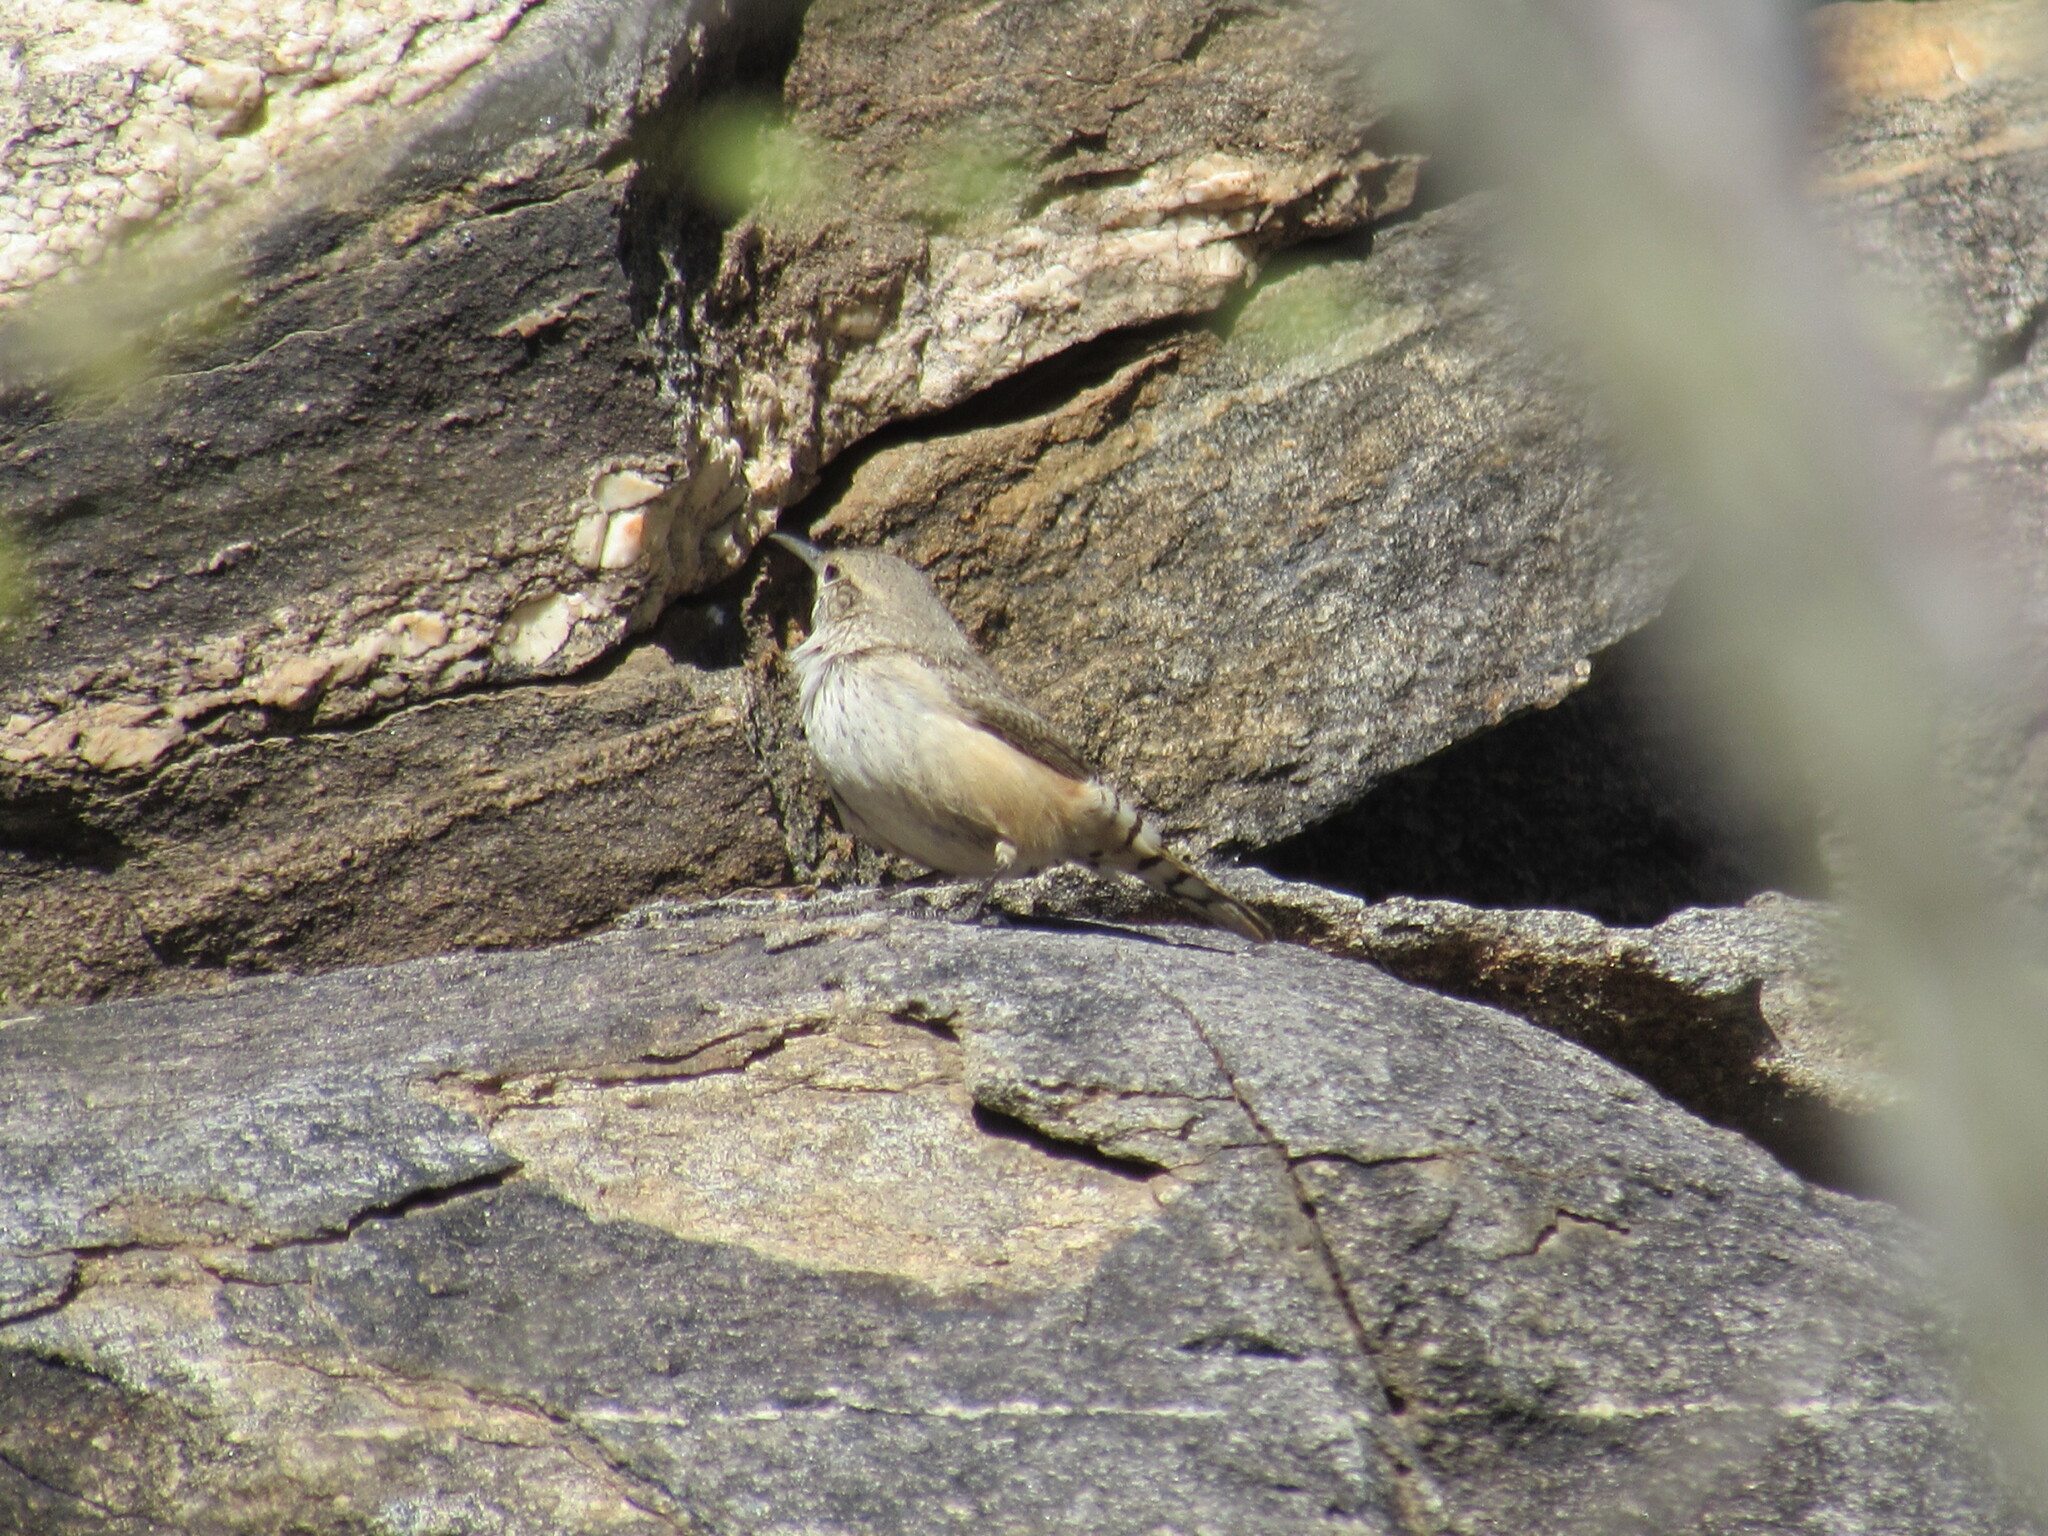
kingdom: Animalia
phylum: Chordata
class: Aves
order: Passeriformes
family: Troglodytidae
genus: Salpinctes
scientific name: Salpinctes obsoletus
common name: Rock wren
